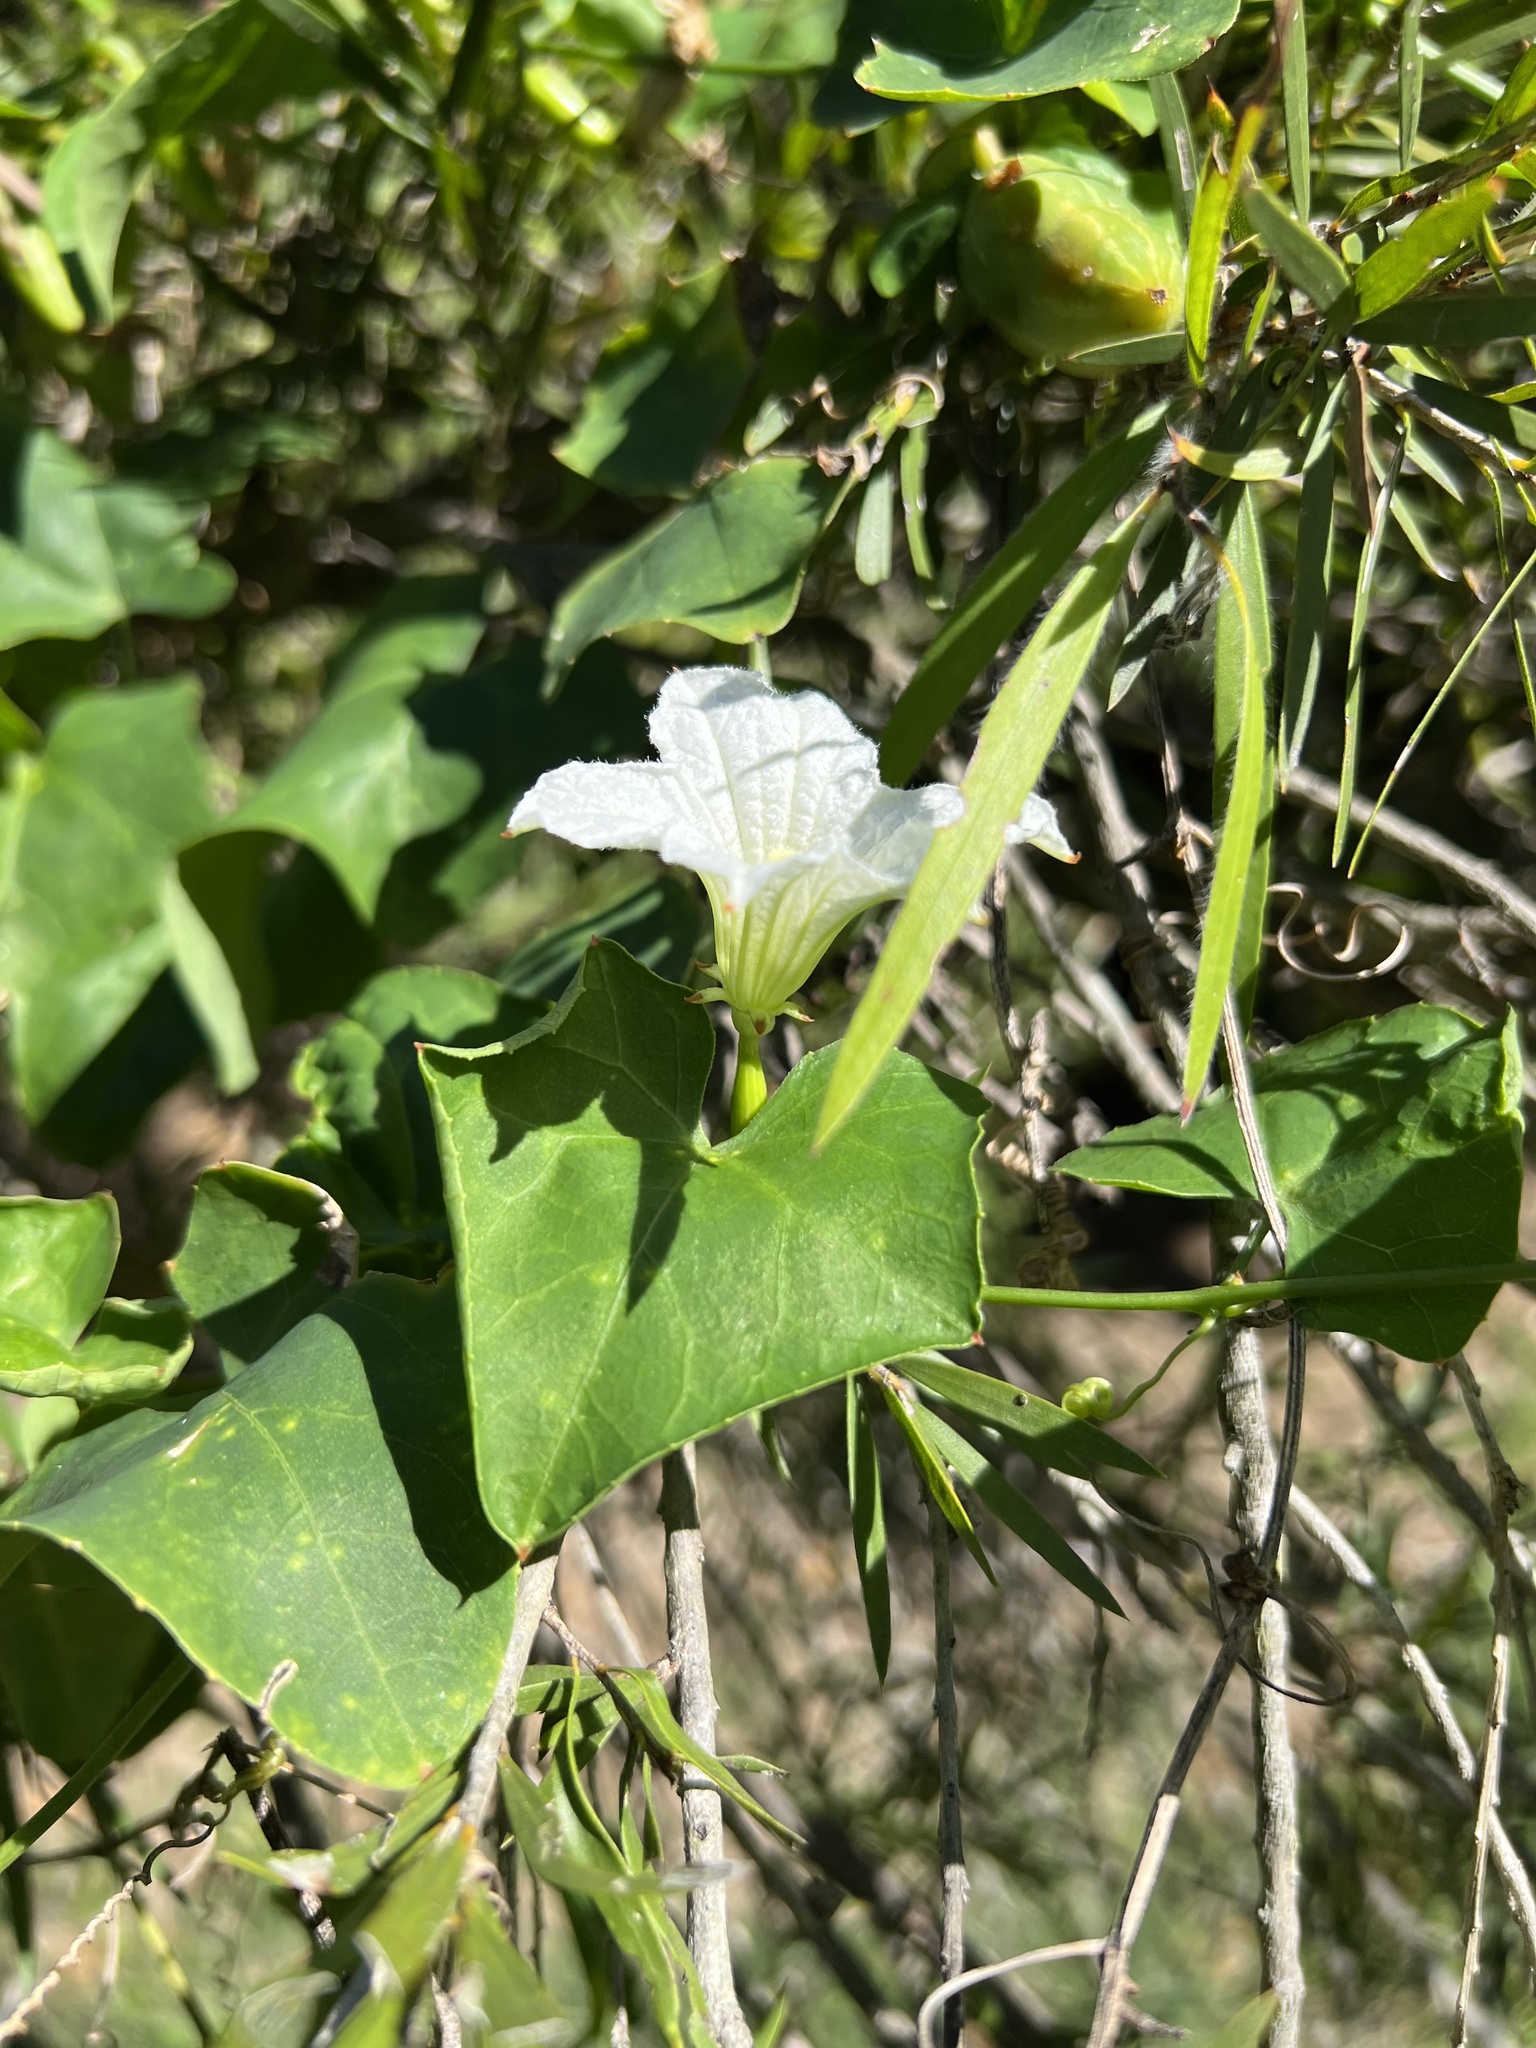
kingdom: Plantae
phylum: Tracheophyta
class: Magnoliopsida
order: Cucurbitales
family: Cucurbitaceae
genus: Coccinia
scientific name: Coccinia grandis
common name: Ivy gourd
